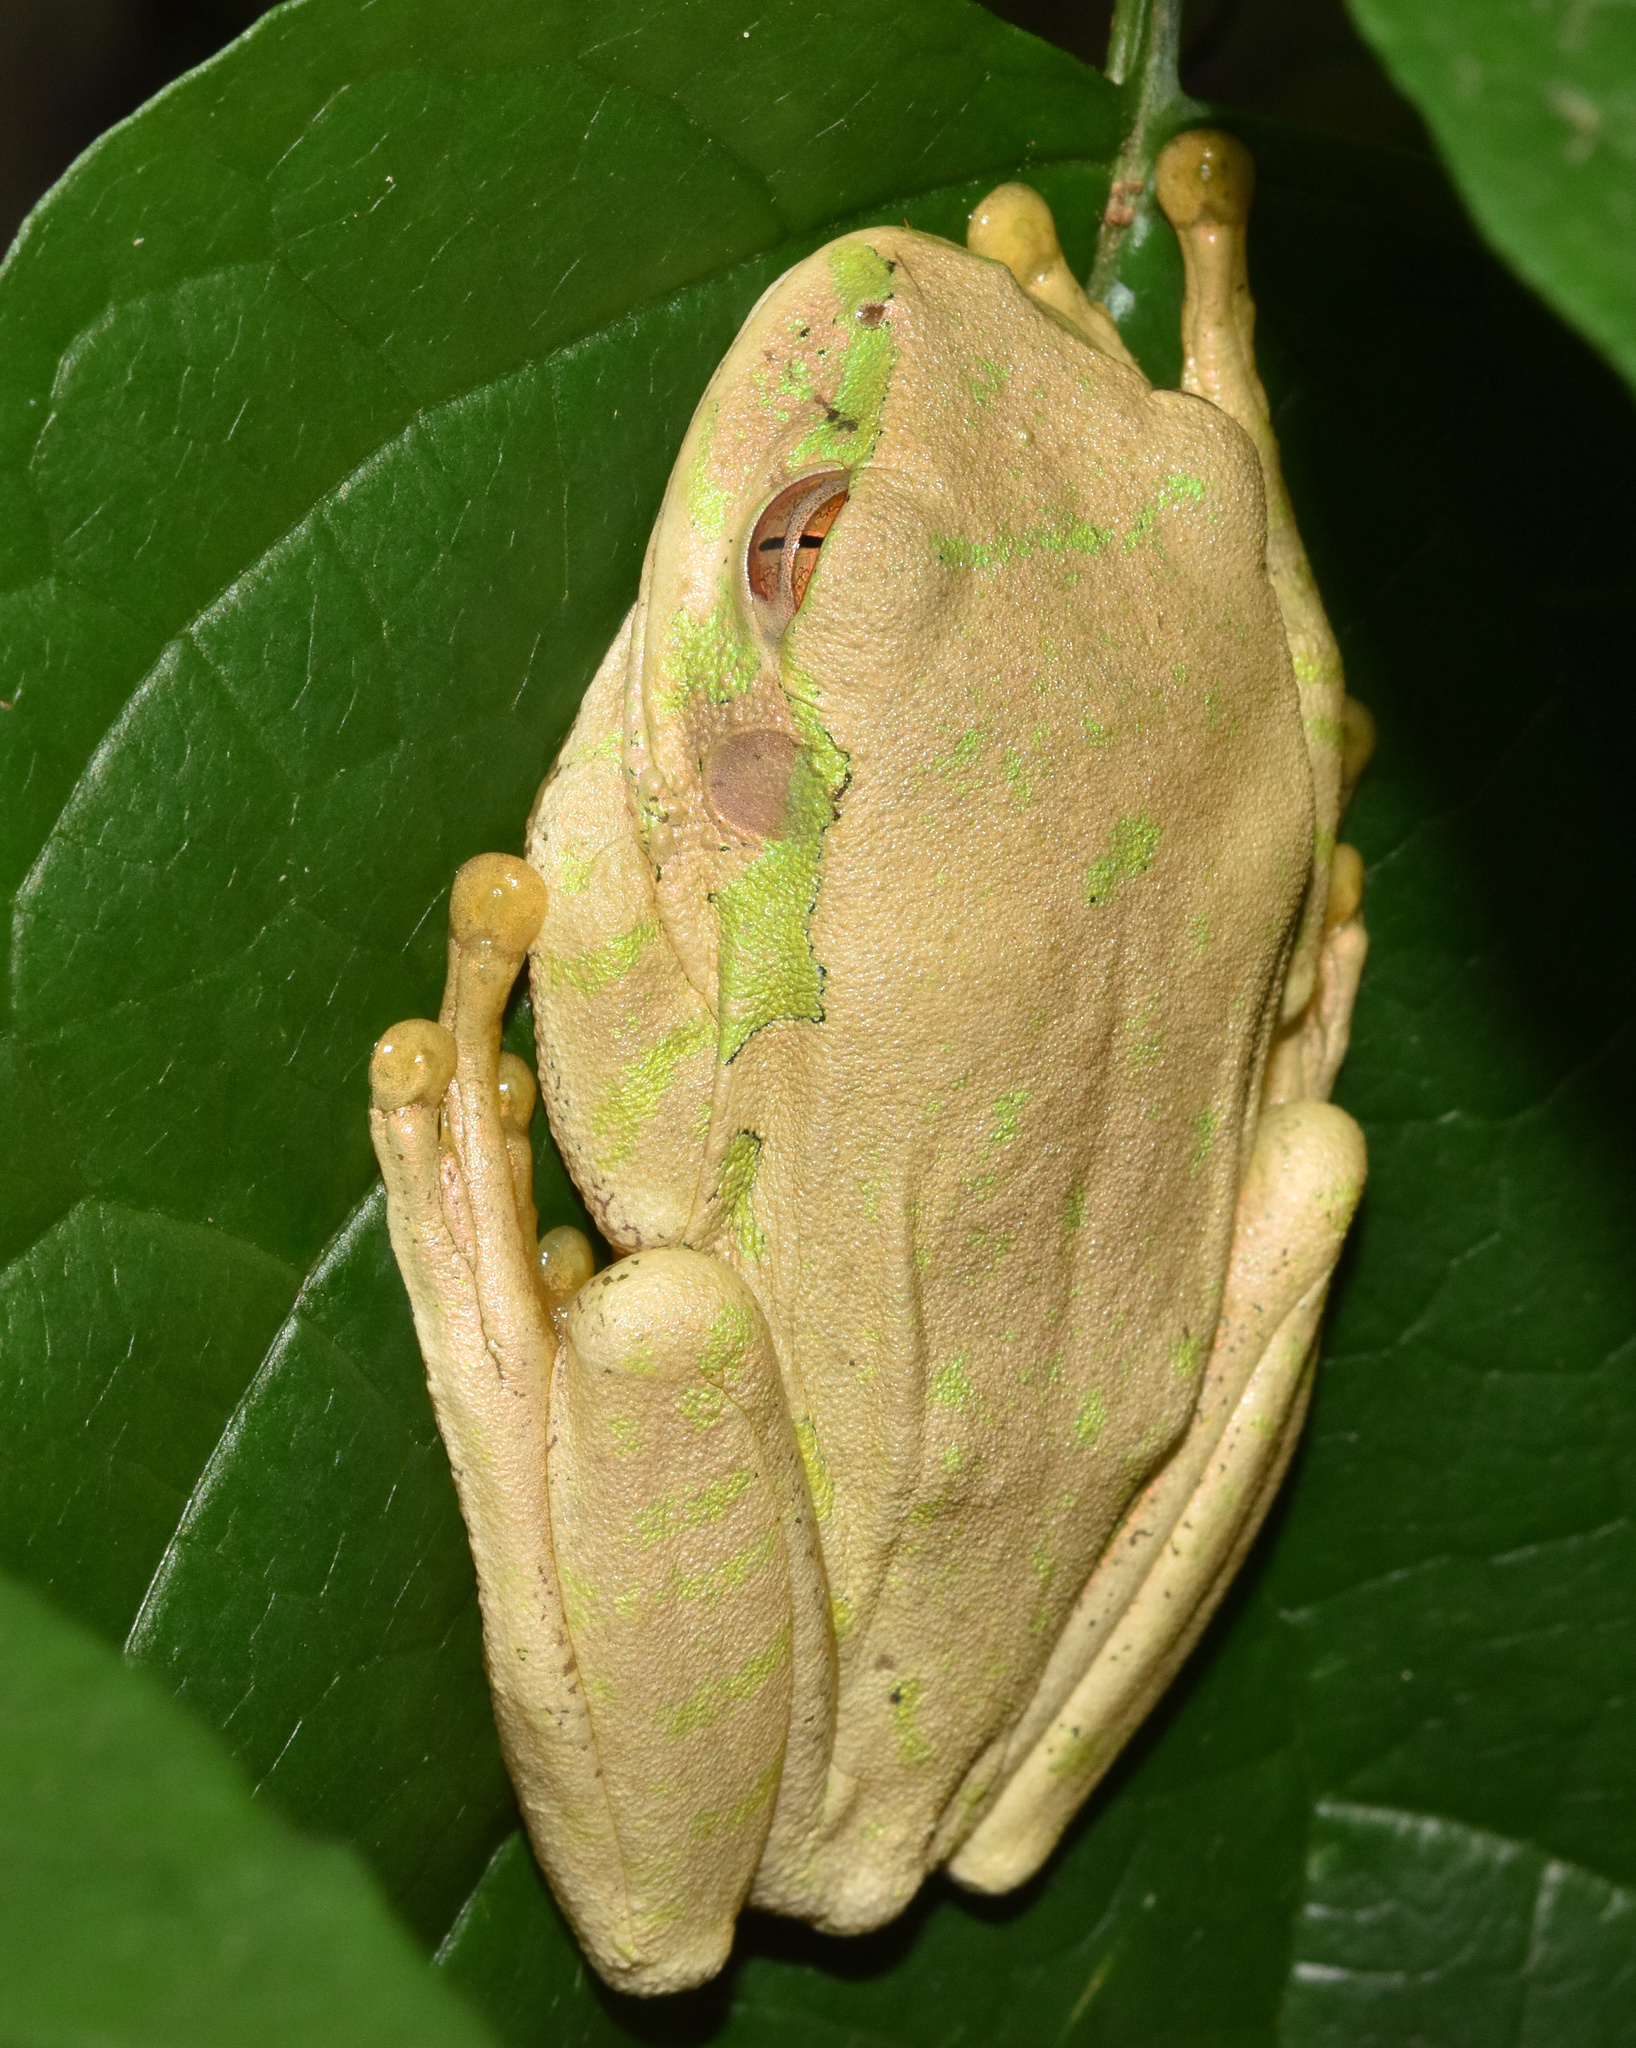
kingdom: Animalia
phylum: Chordata
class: Amphibia
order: Anura
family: Arthroleptidae
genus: Leptopelis
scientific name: Leptopelis natalensis
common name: Natal tree frog
